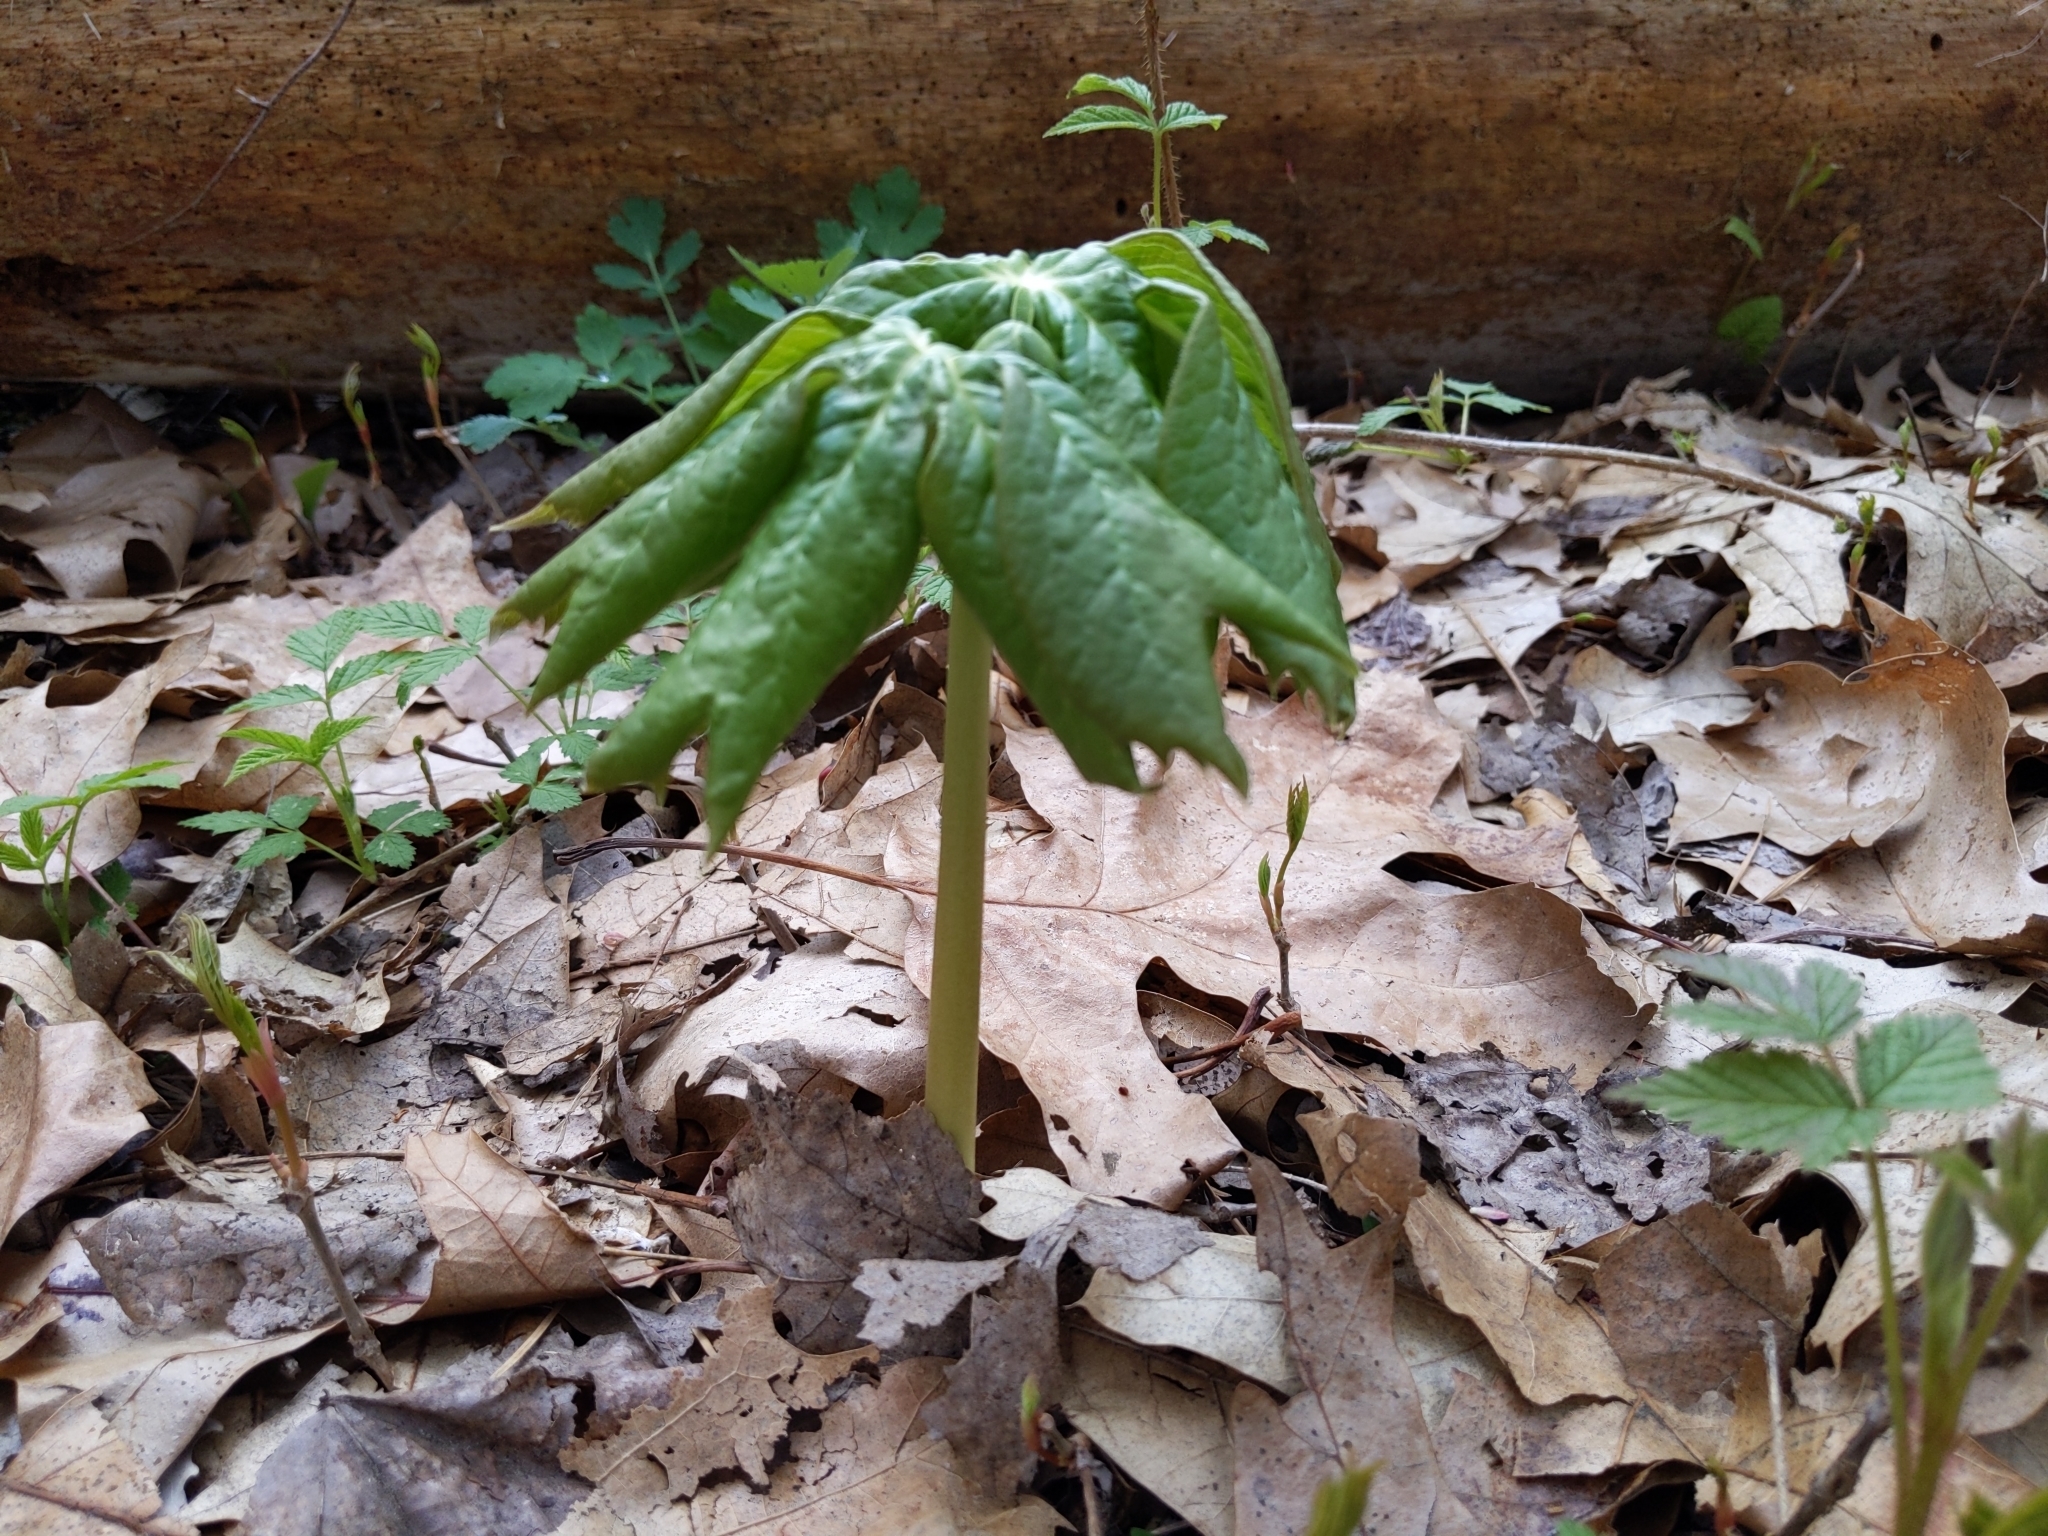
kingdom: Plantae
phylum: Tracheophyta
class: Magnoliopsida
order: Ranunculales
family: Berberidaceae
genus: Podophyllum
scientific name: Podophyllum peltatum
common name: Wild mandrake
